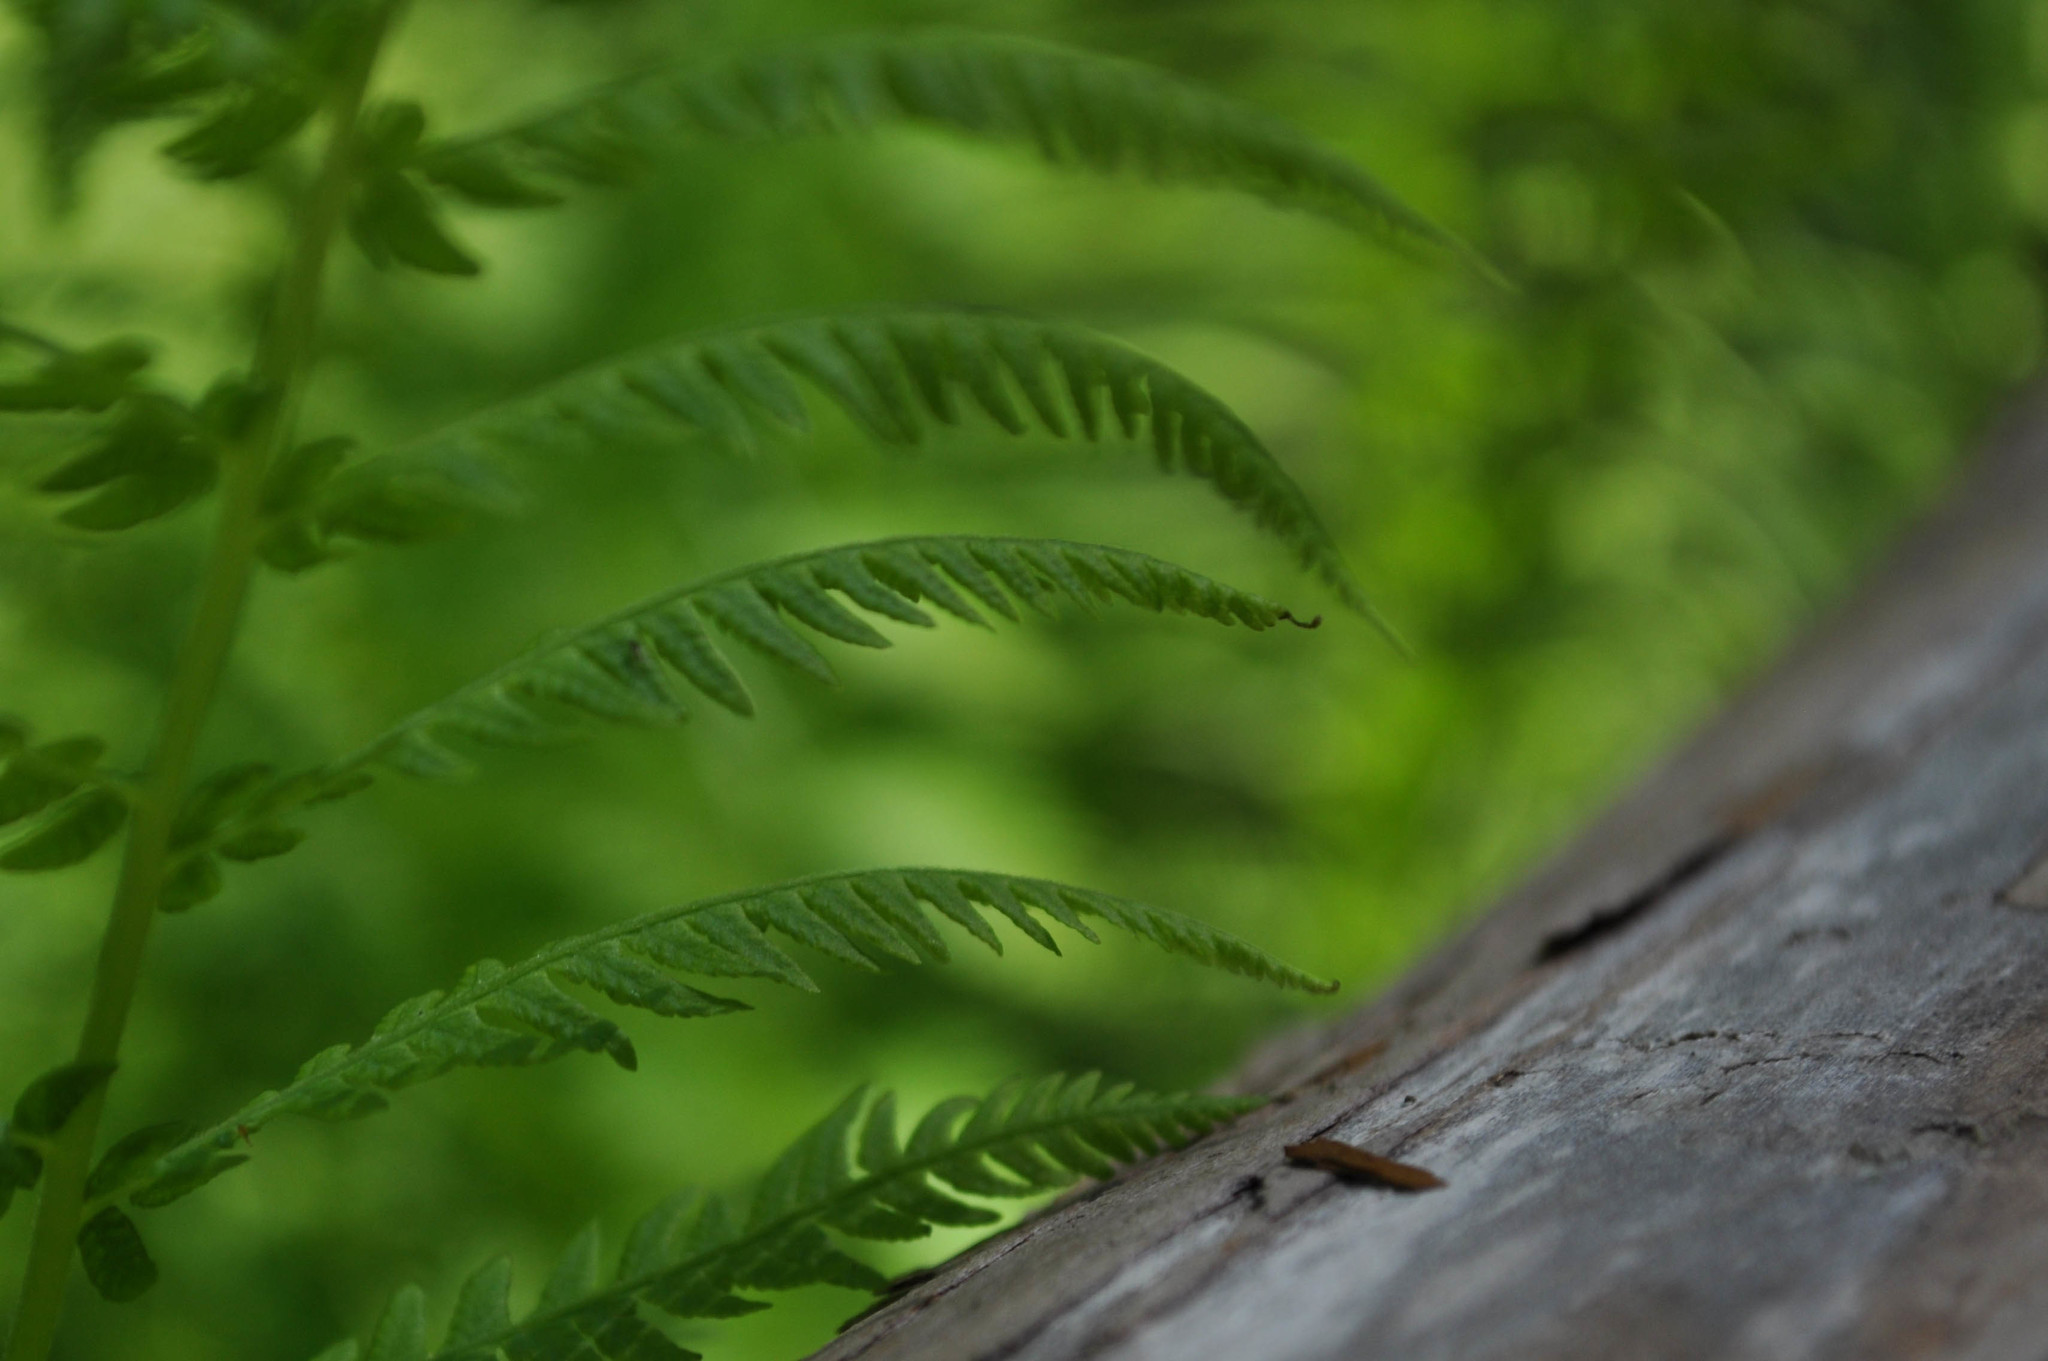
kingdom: Plantae
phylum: Tracheophyta
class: Polypodiopsida
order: Polypodiales
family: Dennstaedtiaceae
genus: Pteridium
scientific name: Pteridium aquilinum
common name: Bracken
